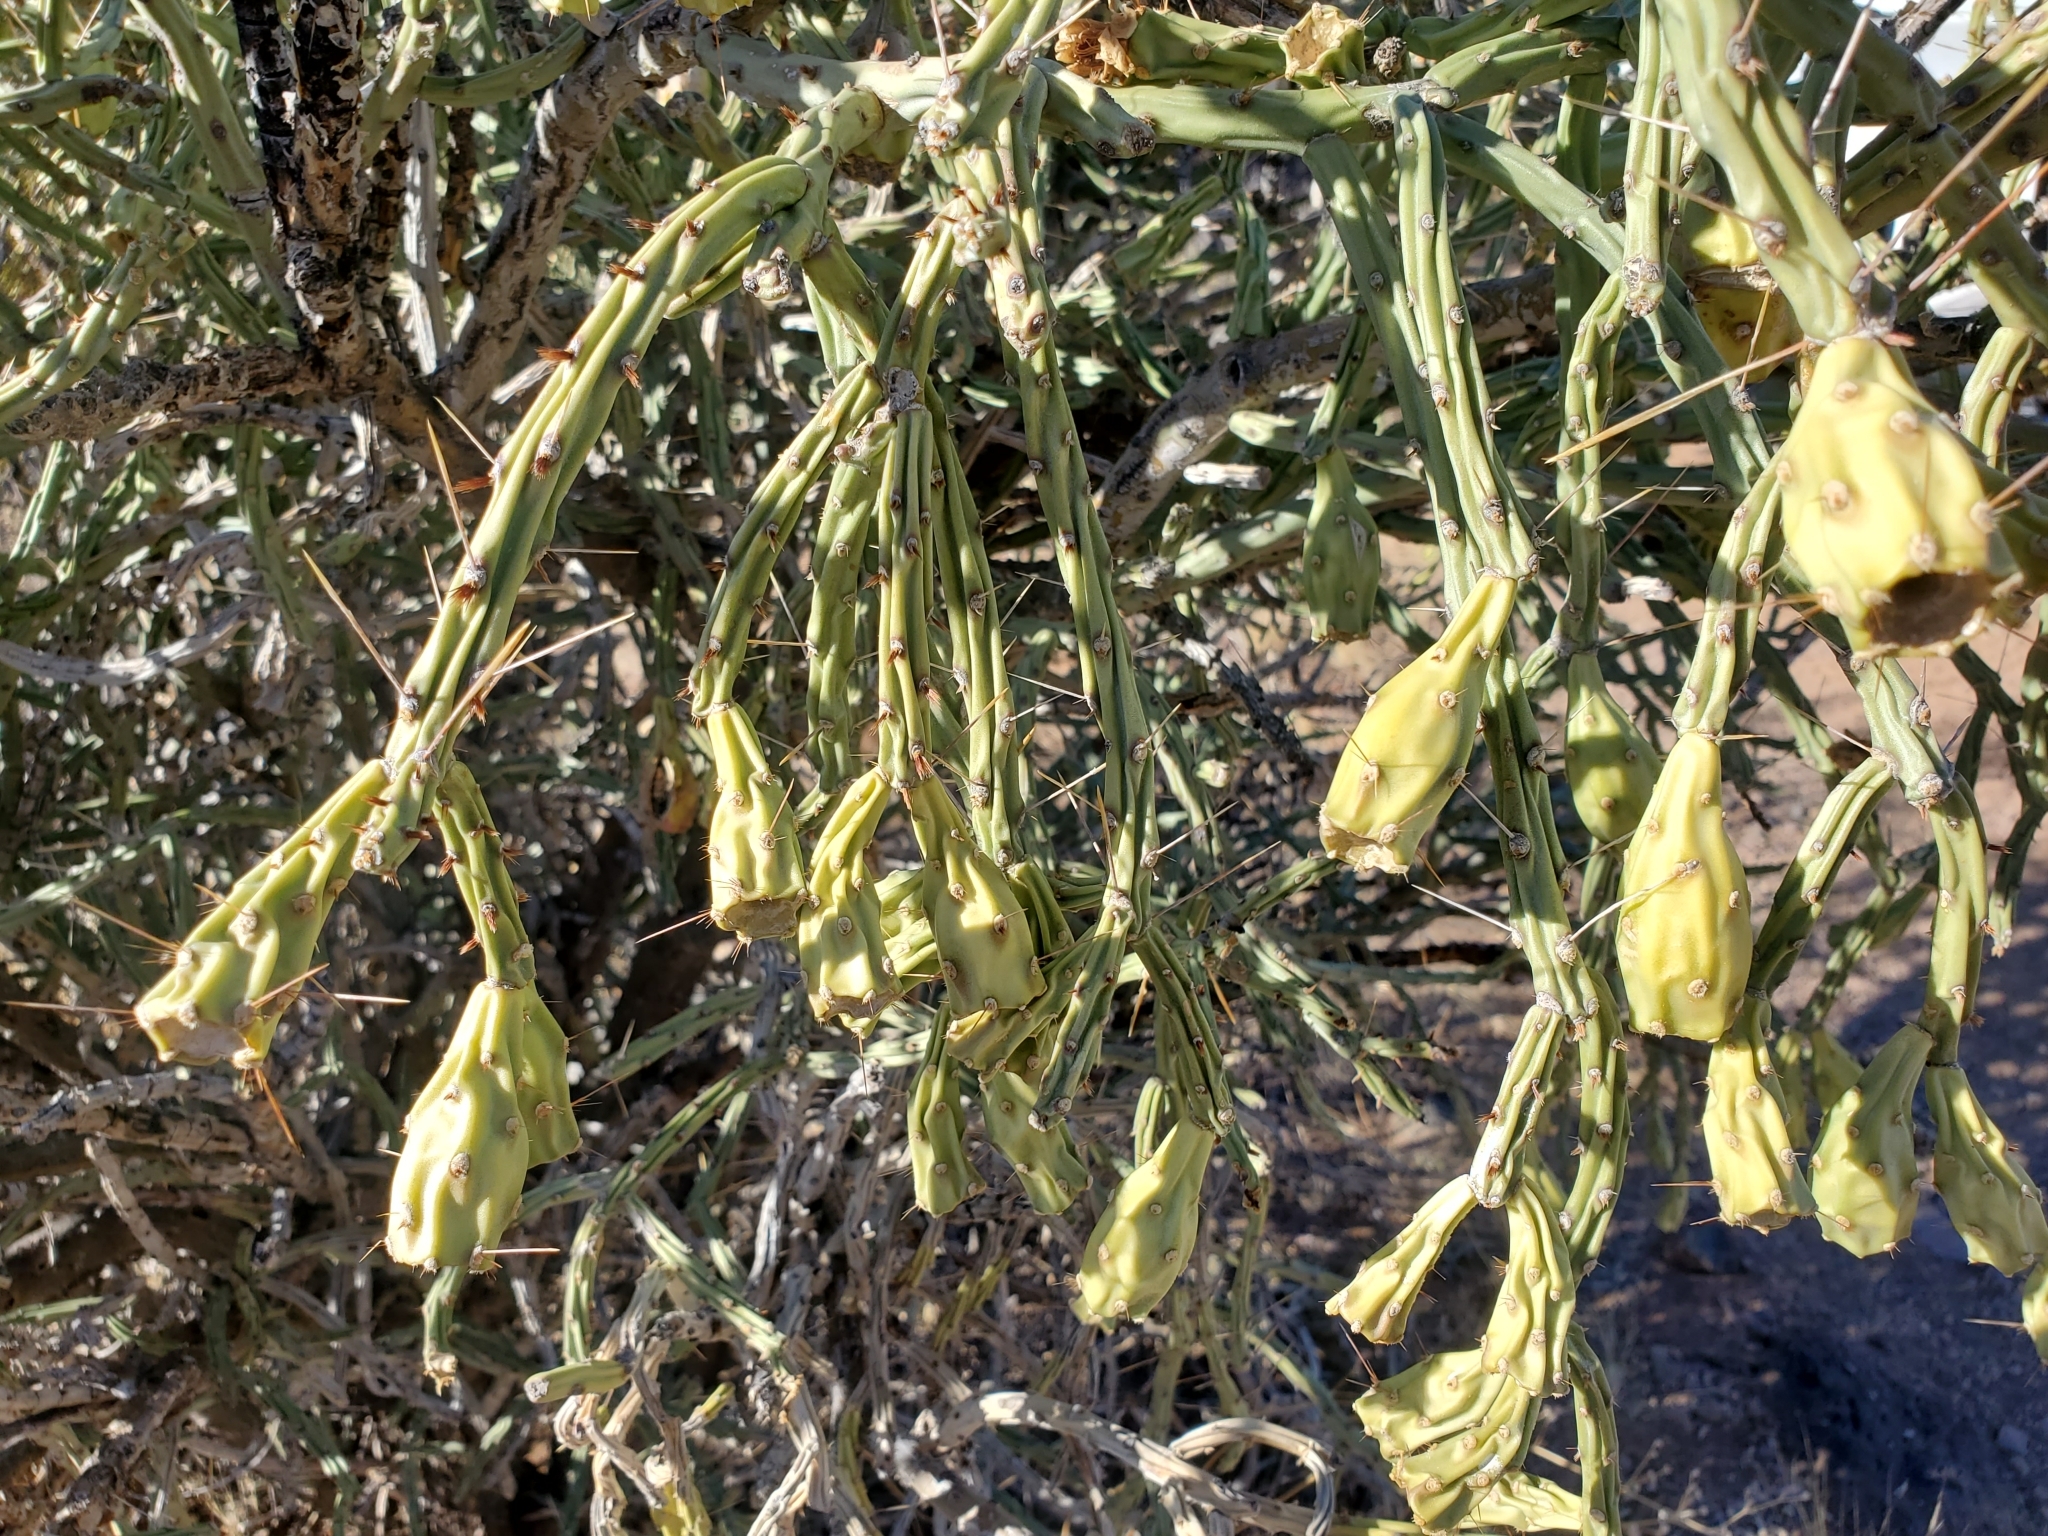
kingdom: Plantae
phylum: Tracheophyta
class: Magnoliopsida
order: Caryophyllales
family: Cactaceae
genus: Cylindropuntia
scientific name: Cylindropuntia arbuscula
